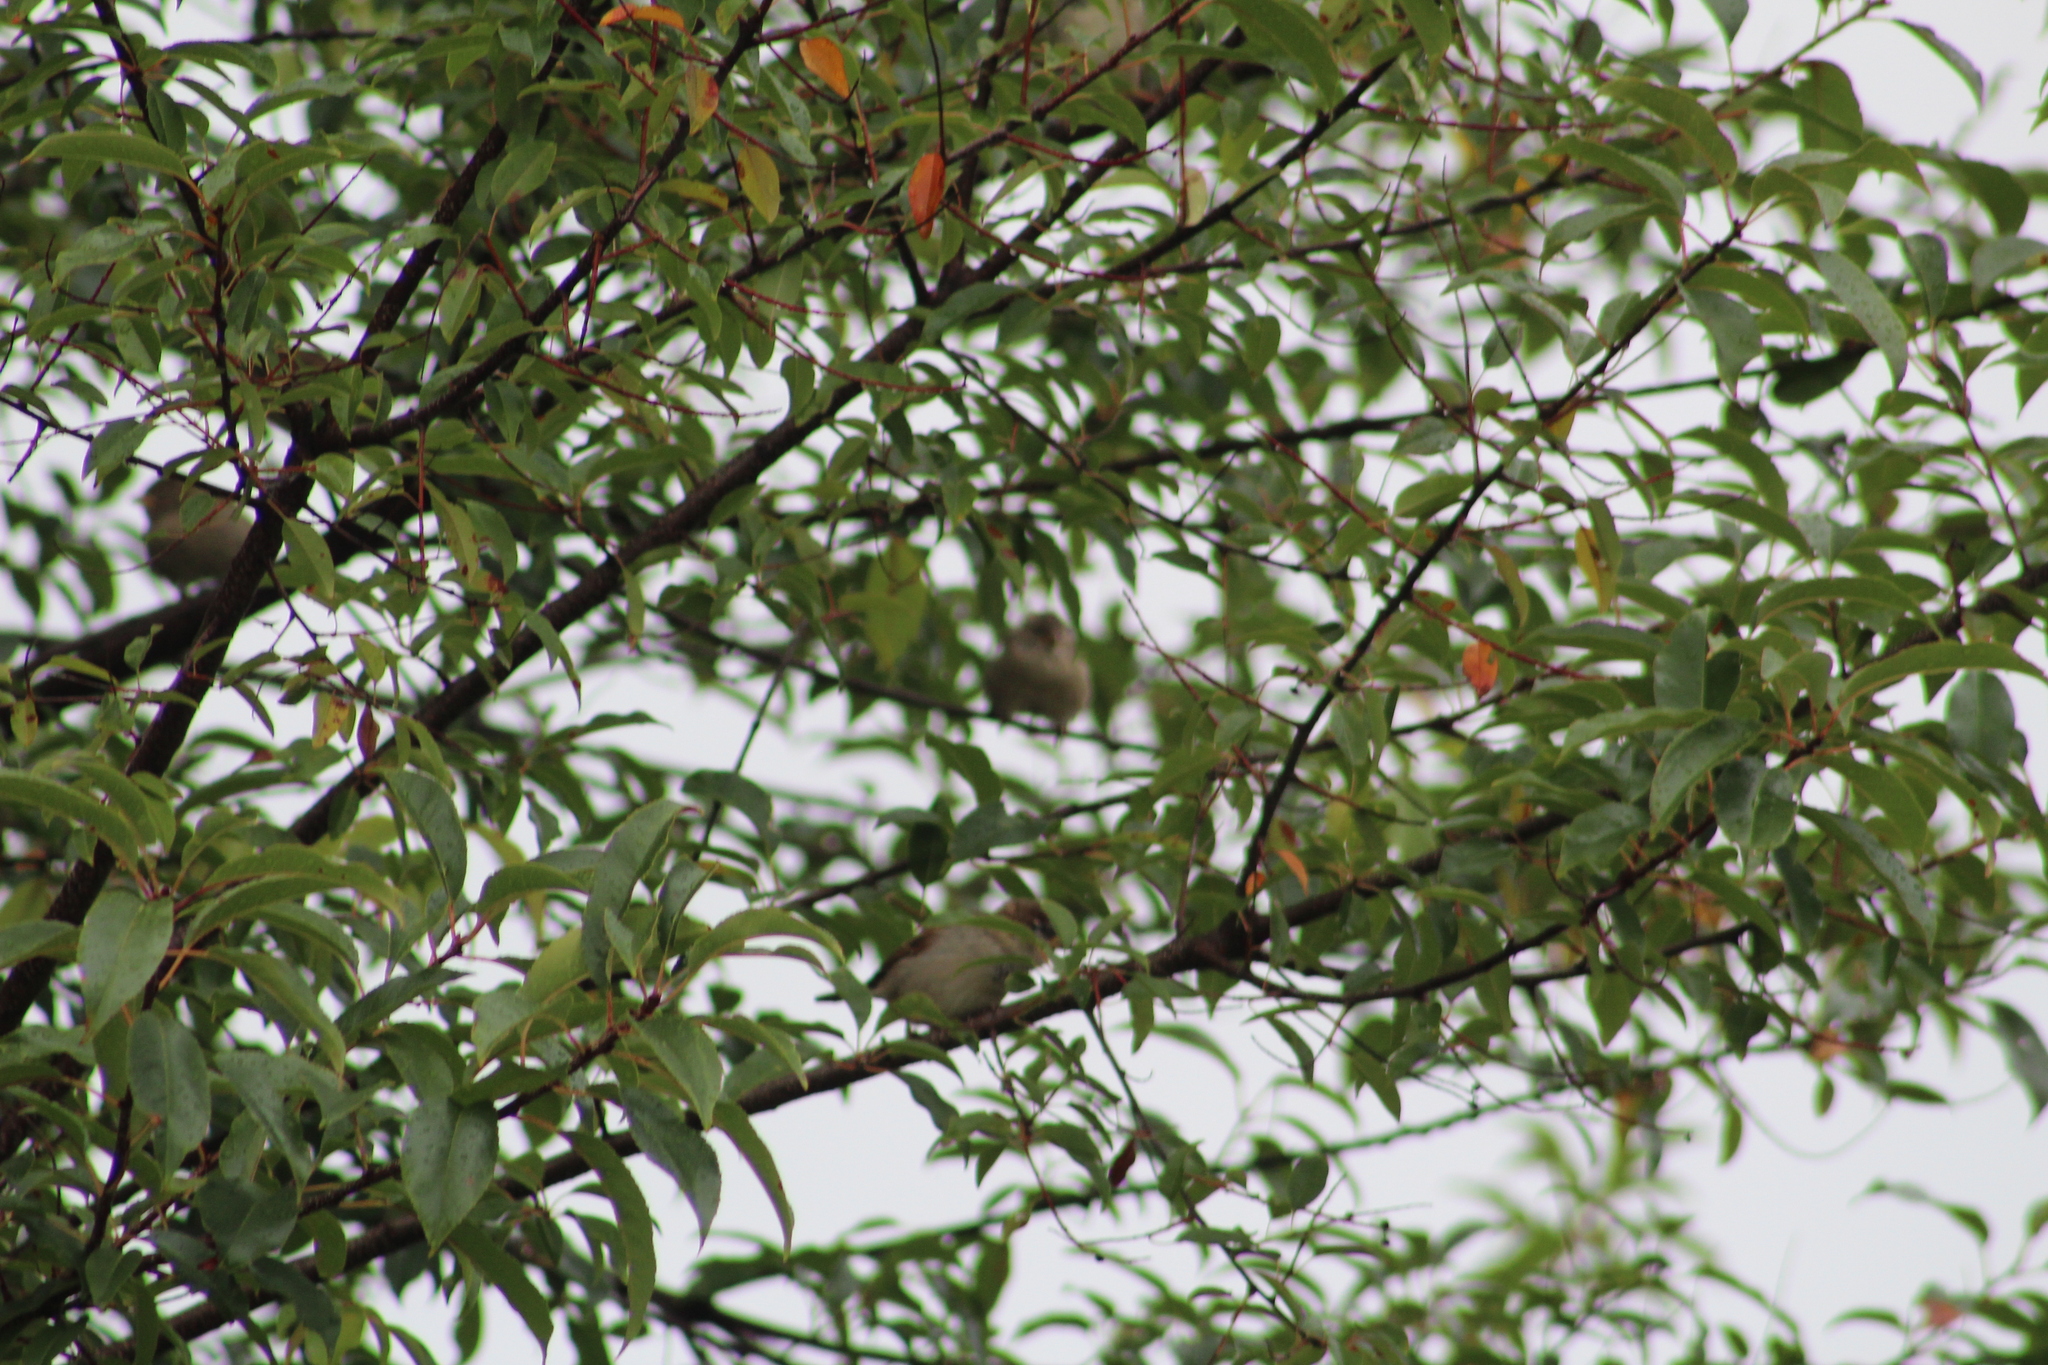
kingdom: Animalia
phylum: Chordata
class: Aves
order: Passeriformes
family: Passeridae
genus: Passer
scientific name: Passer domesticus
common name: House sparrow
